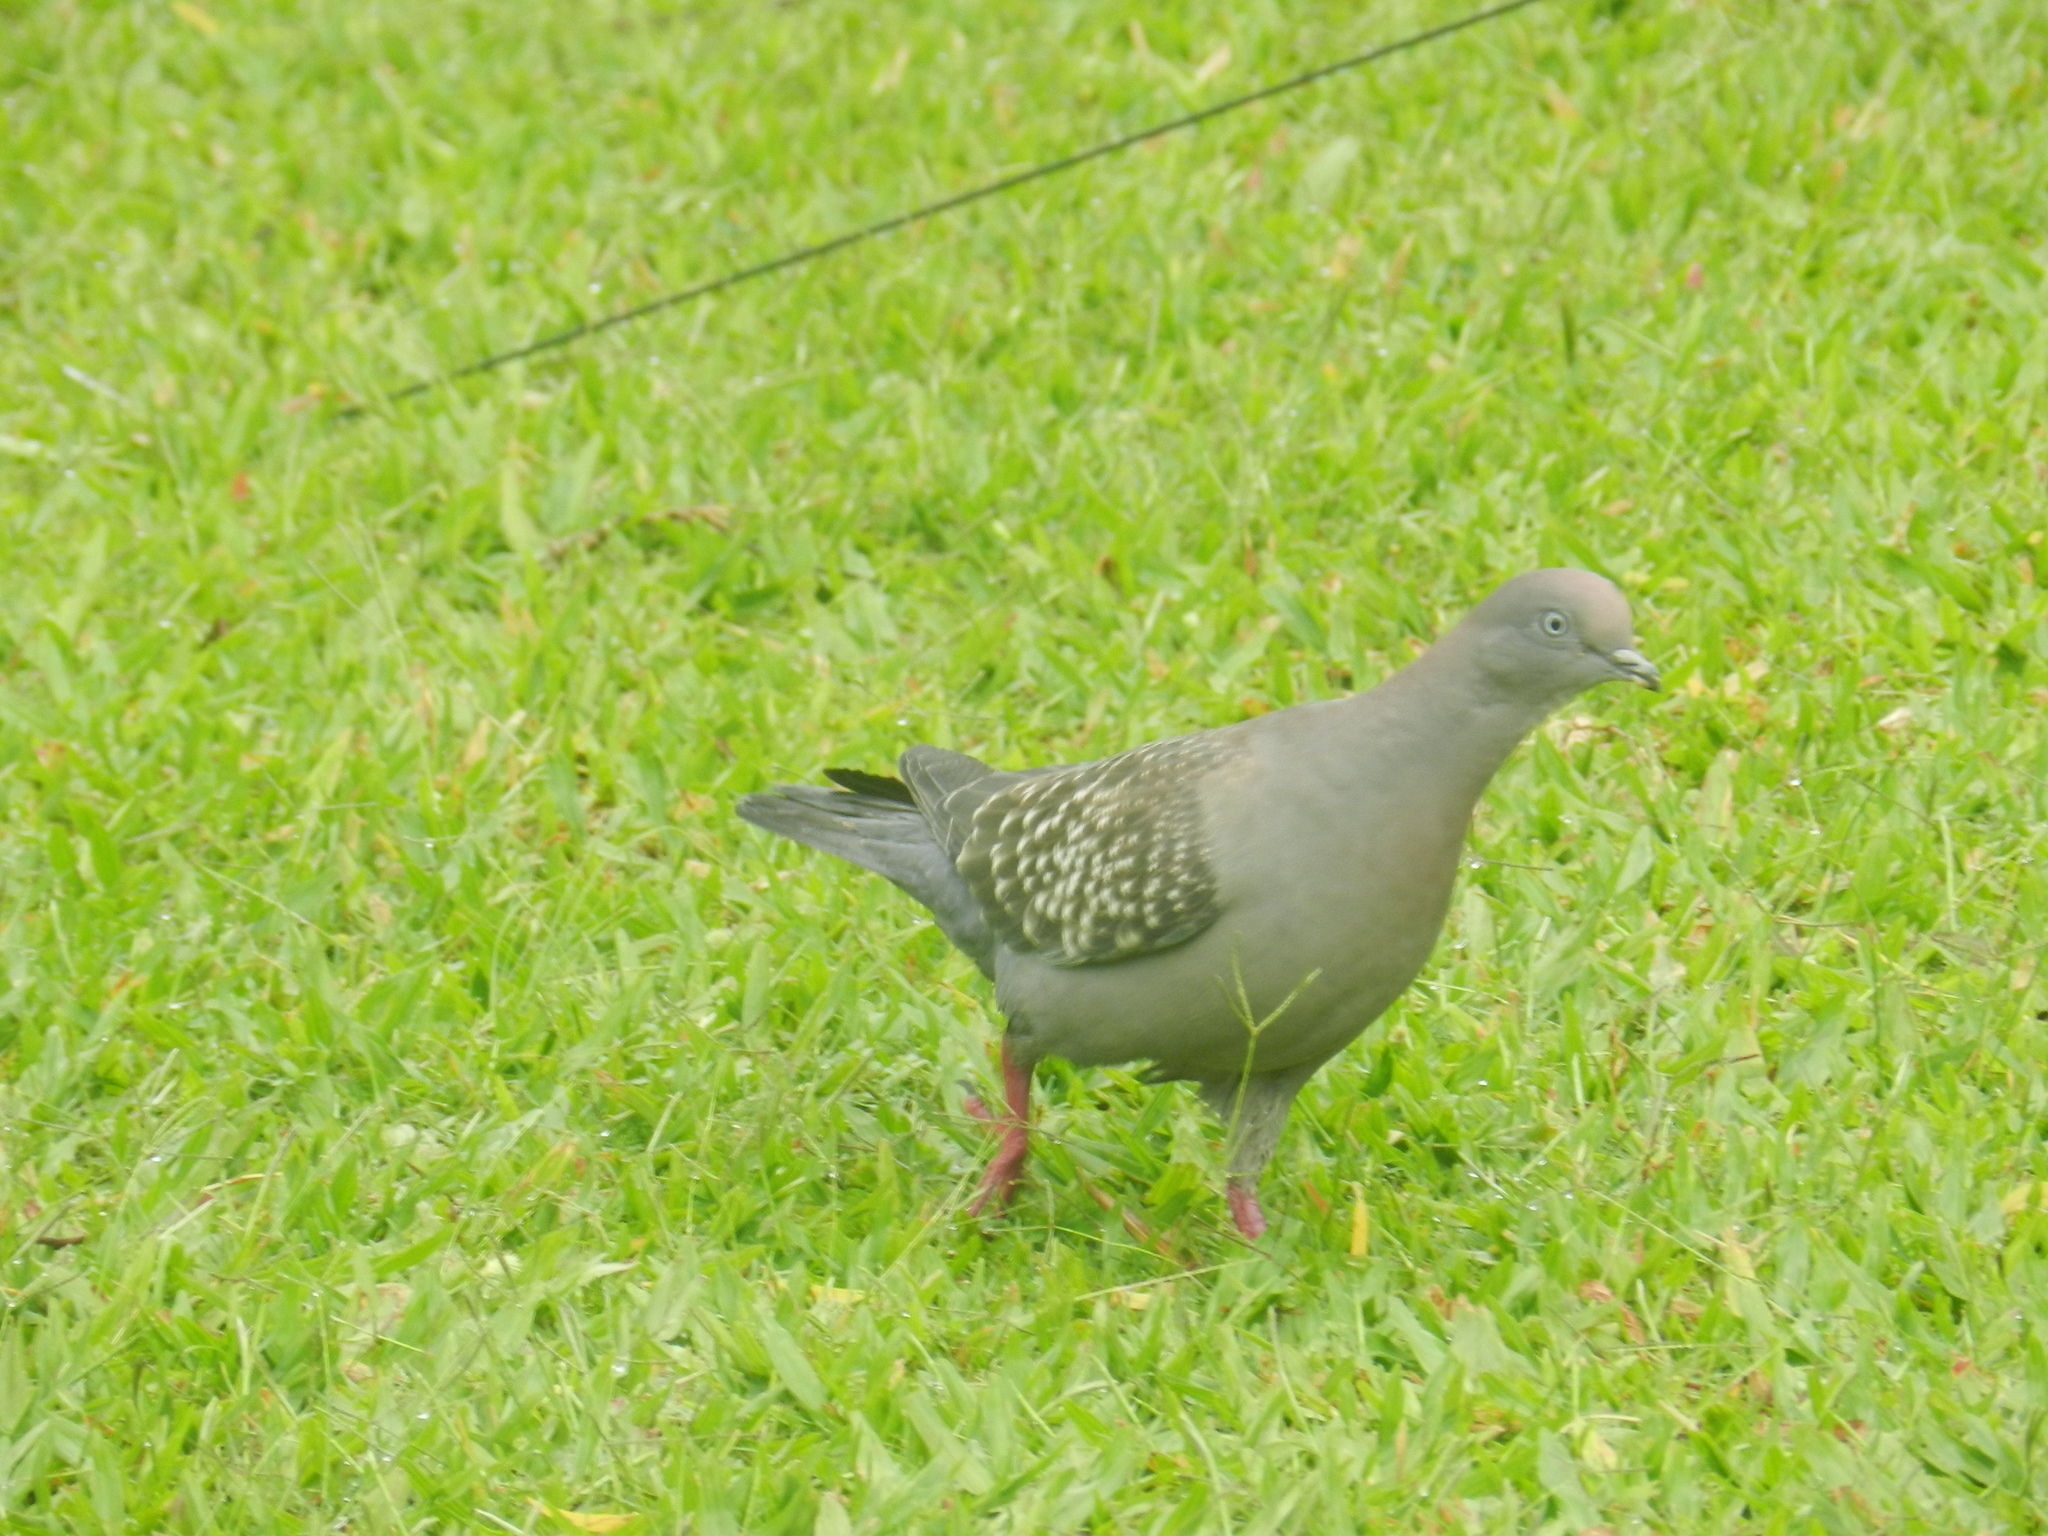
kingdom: Animalia
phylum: Chordata
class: Aves
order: Columbiformes
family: Columbidae
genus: Patagioenas
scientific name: Patagioenas maculosa
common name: Spot-winged pigeon
